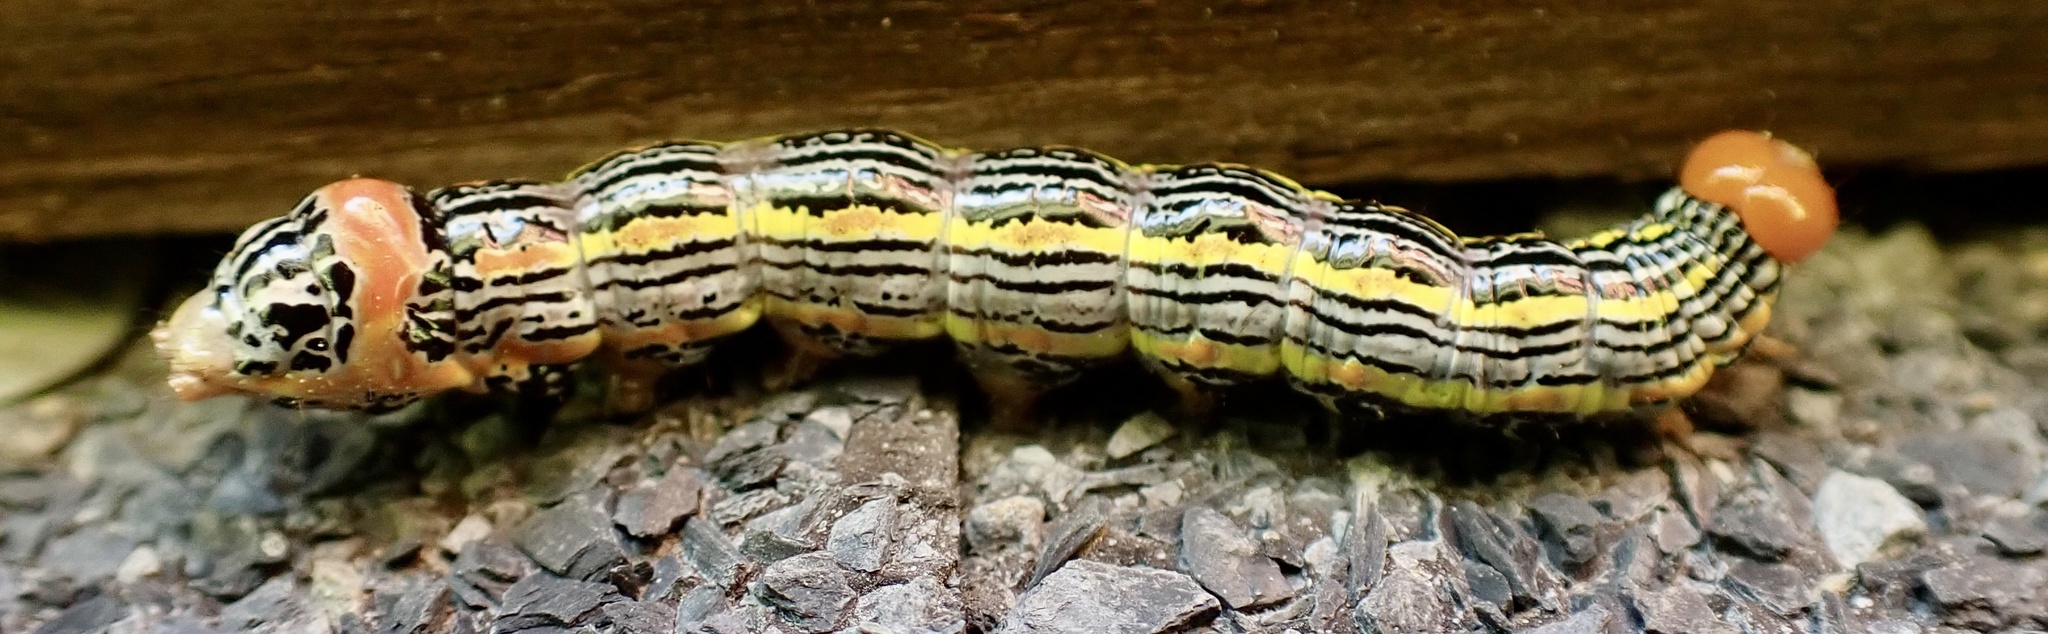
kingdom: Animalia
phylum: Arthropoda
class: Insecta
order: Lepidoptera
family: Notodontidae
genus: Symmerista
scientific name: Symmerista albifrons
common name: White-headed prominent
